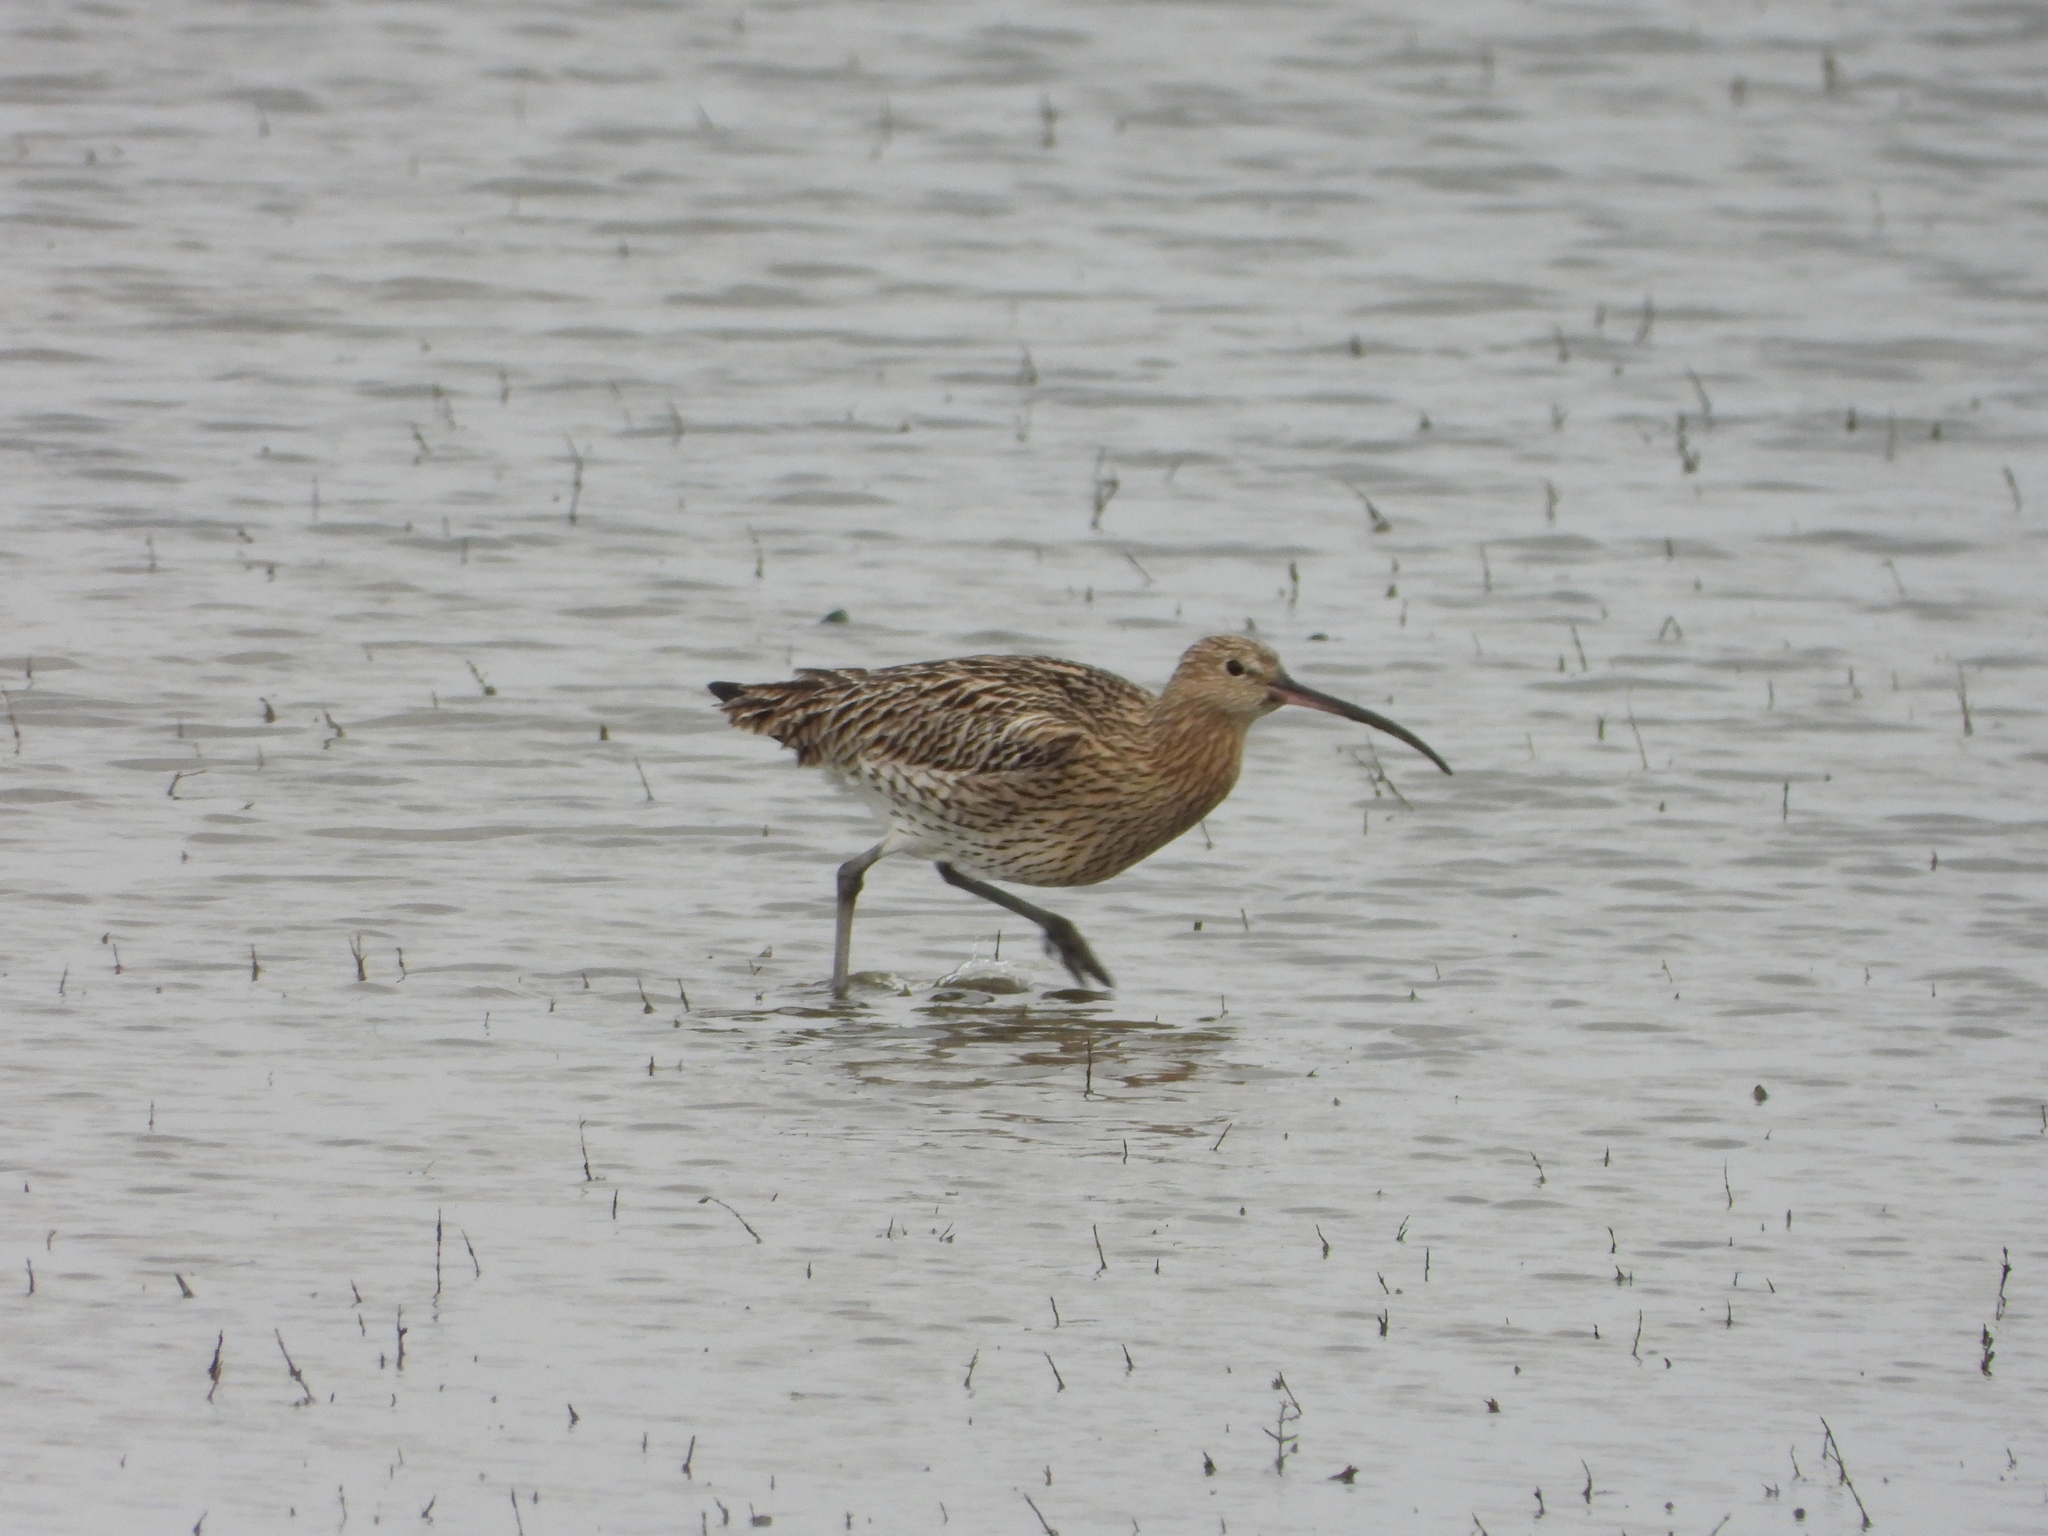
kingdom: Animalia
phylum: Chordata
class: Aves
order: Charadriiformes
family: Scolopacidae
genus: Numenius
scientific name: Numenius arquata
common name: Eurasian curlew
